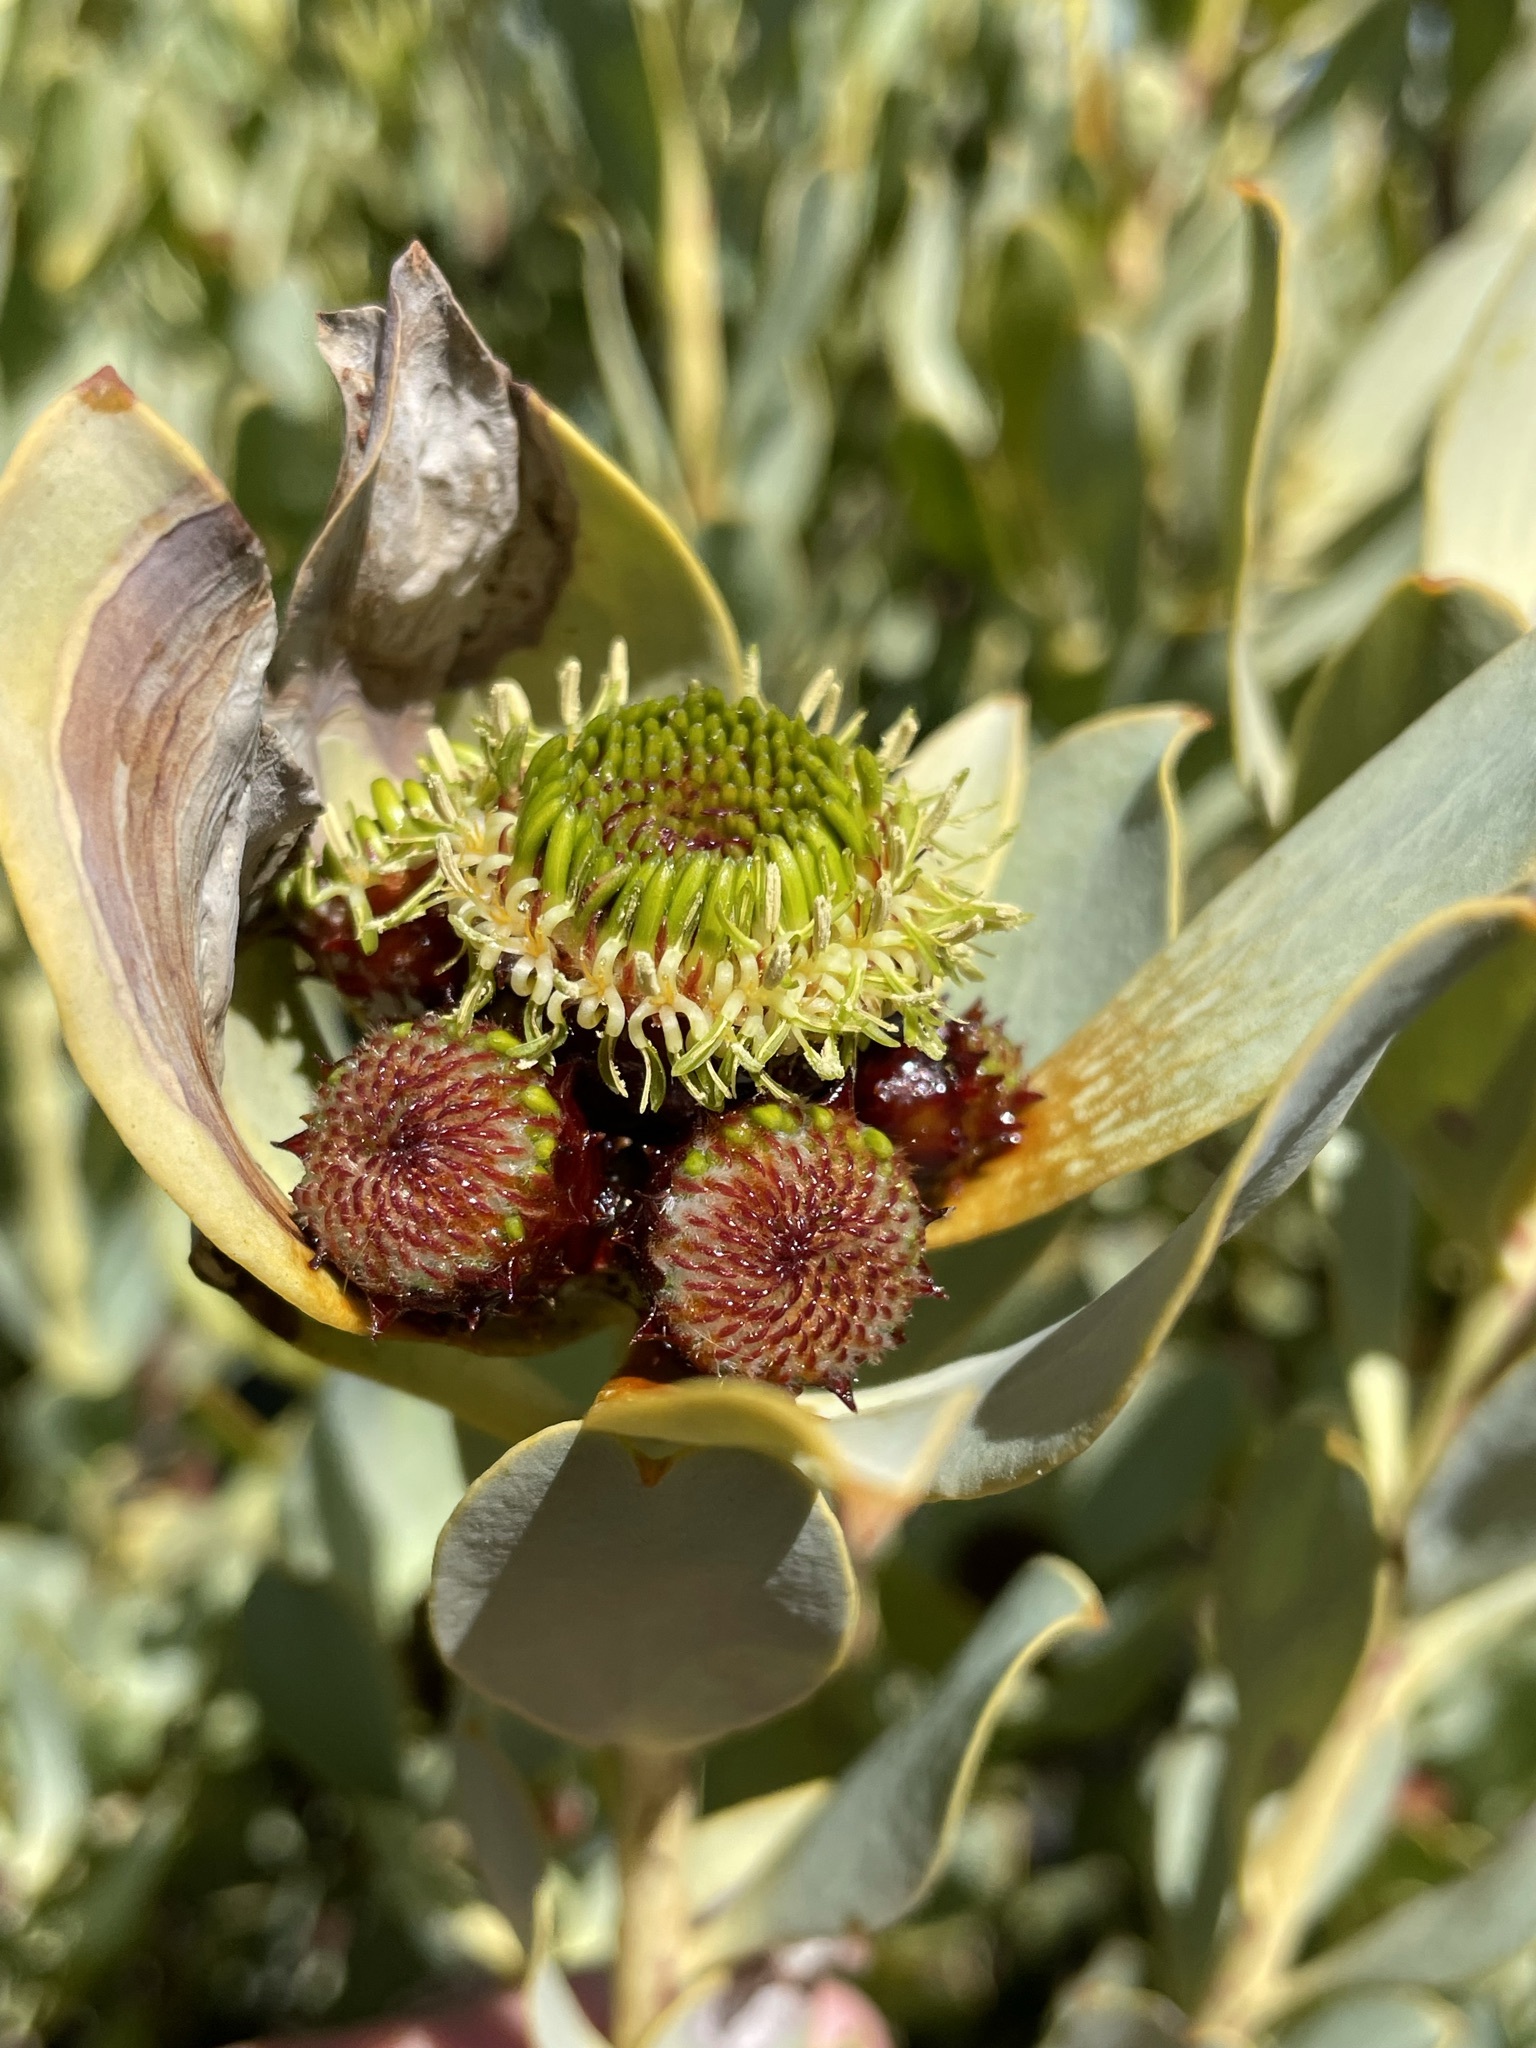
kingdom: Plantae
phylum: Tracheophyta
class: Magnoliopsida
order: Proteales
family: Proteaceae
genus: Leucadendron
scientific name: Leucadendron loranthifolium
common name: Green-flower sunbush
